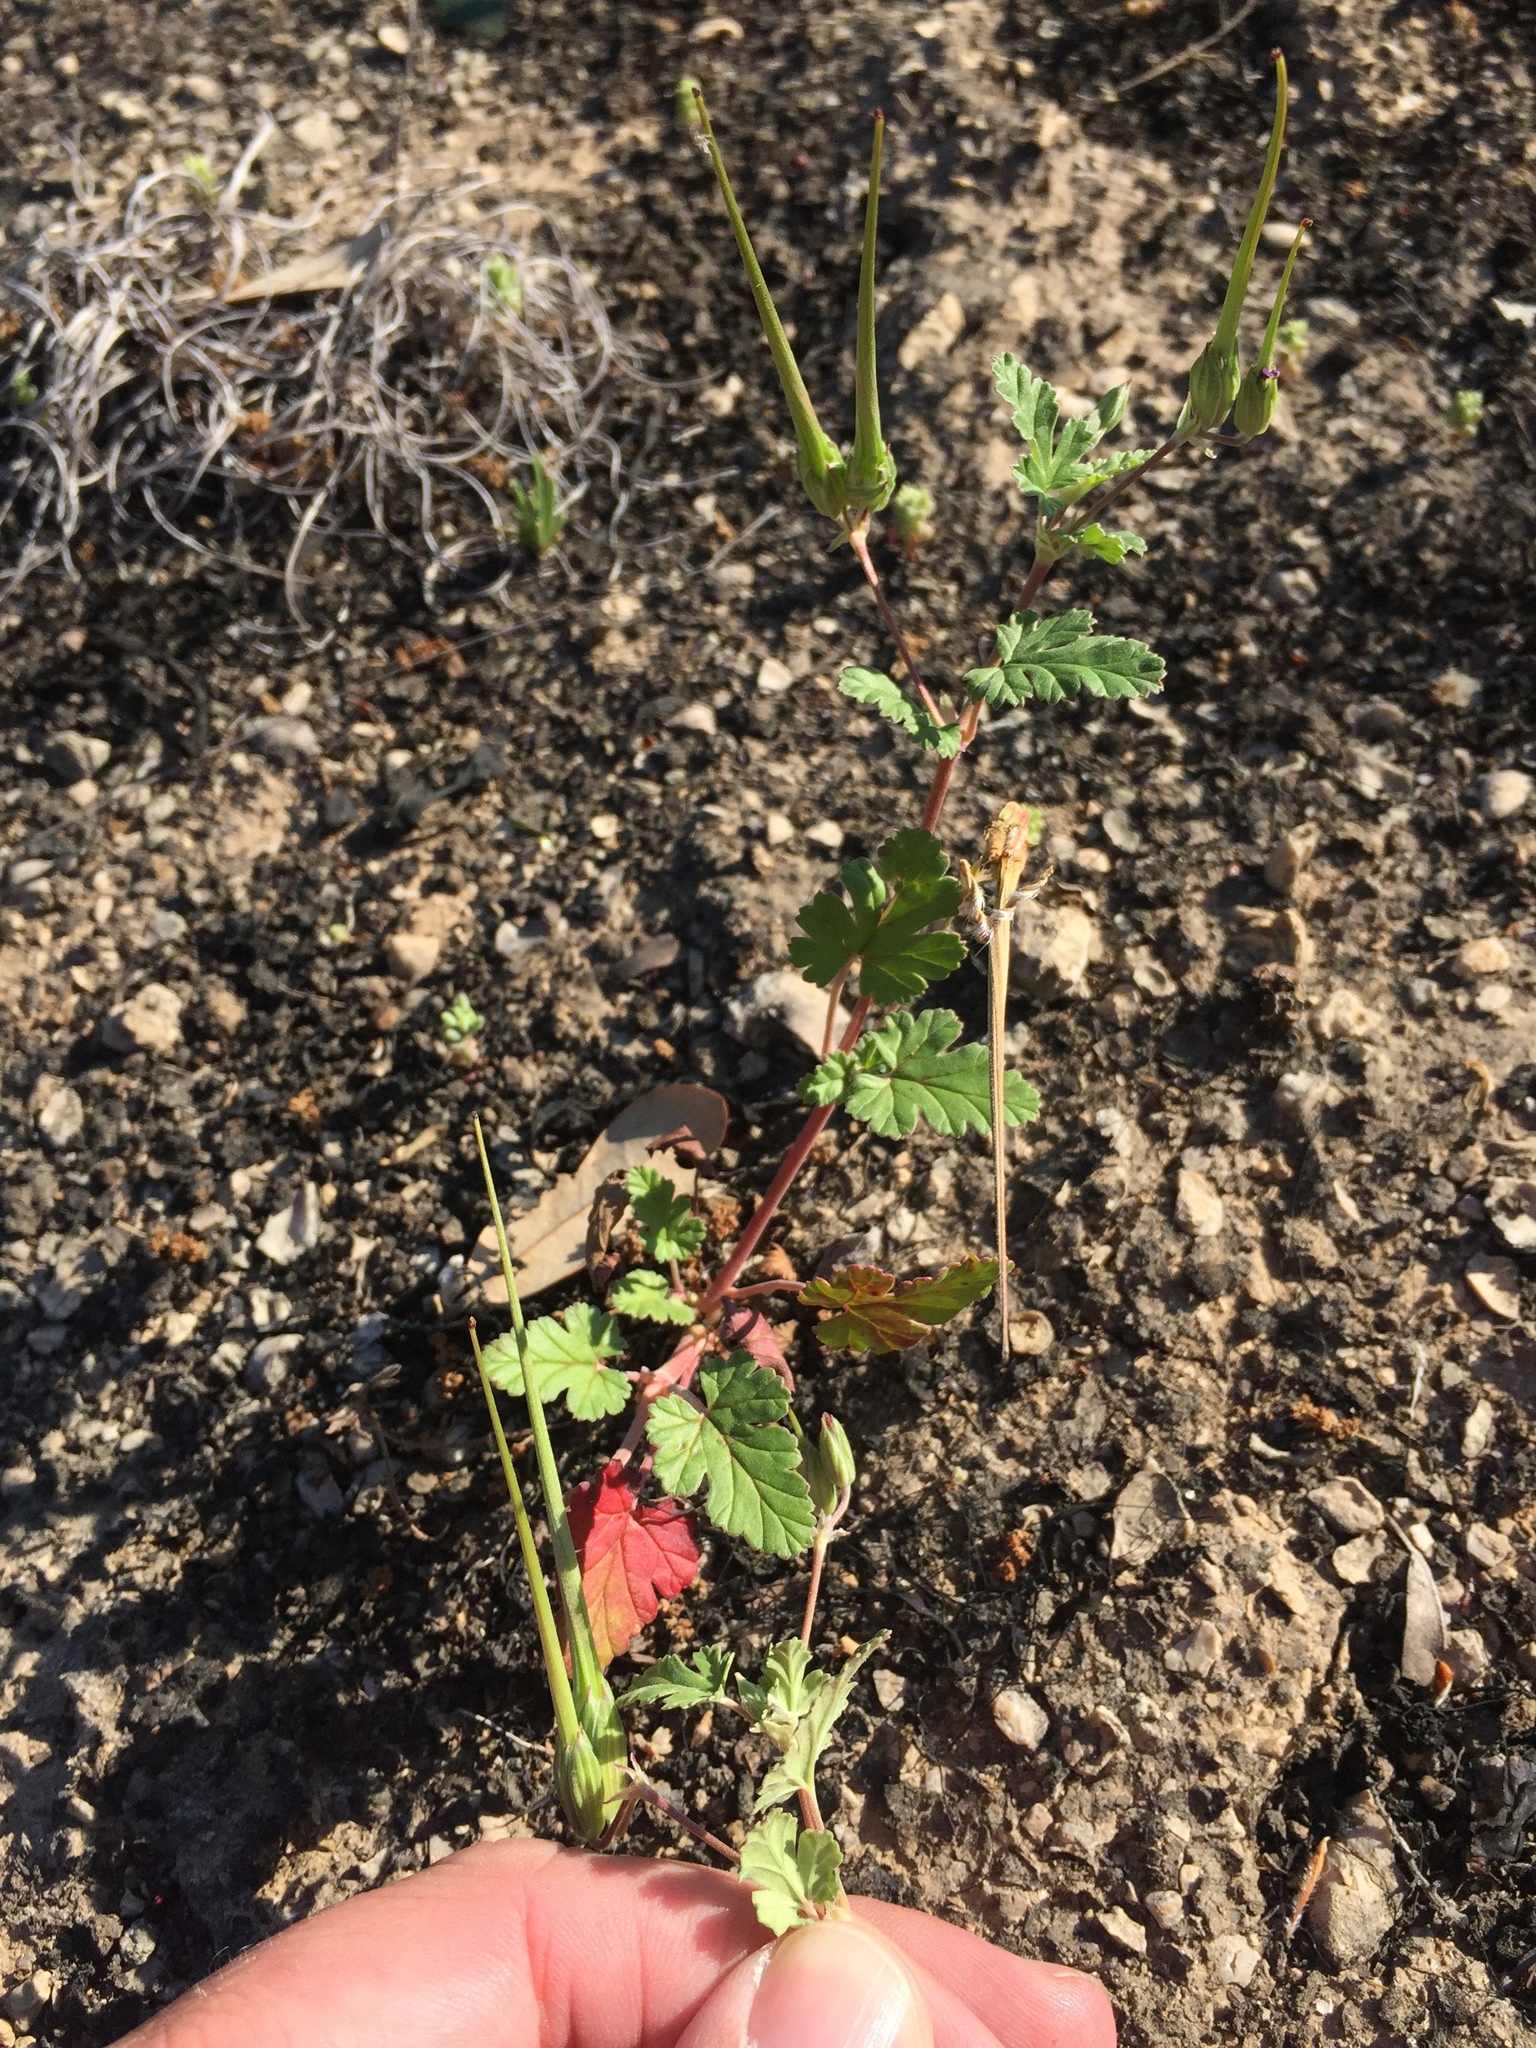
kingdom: Plantae
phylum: Tracheophyta
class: Magnoliopsida
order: Geraniales
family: Geraniaceae
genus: Erodium
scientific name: Erodium texanum
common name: Texas stork's-bill
